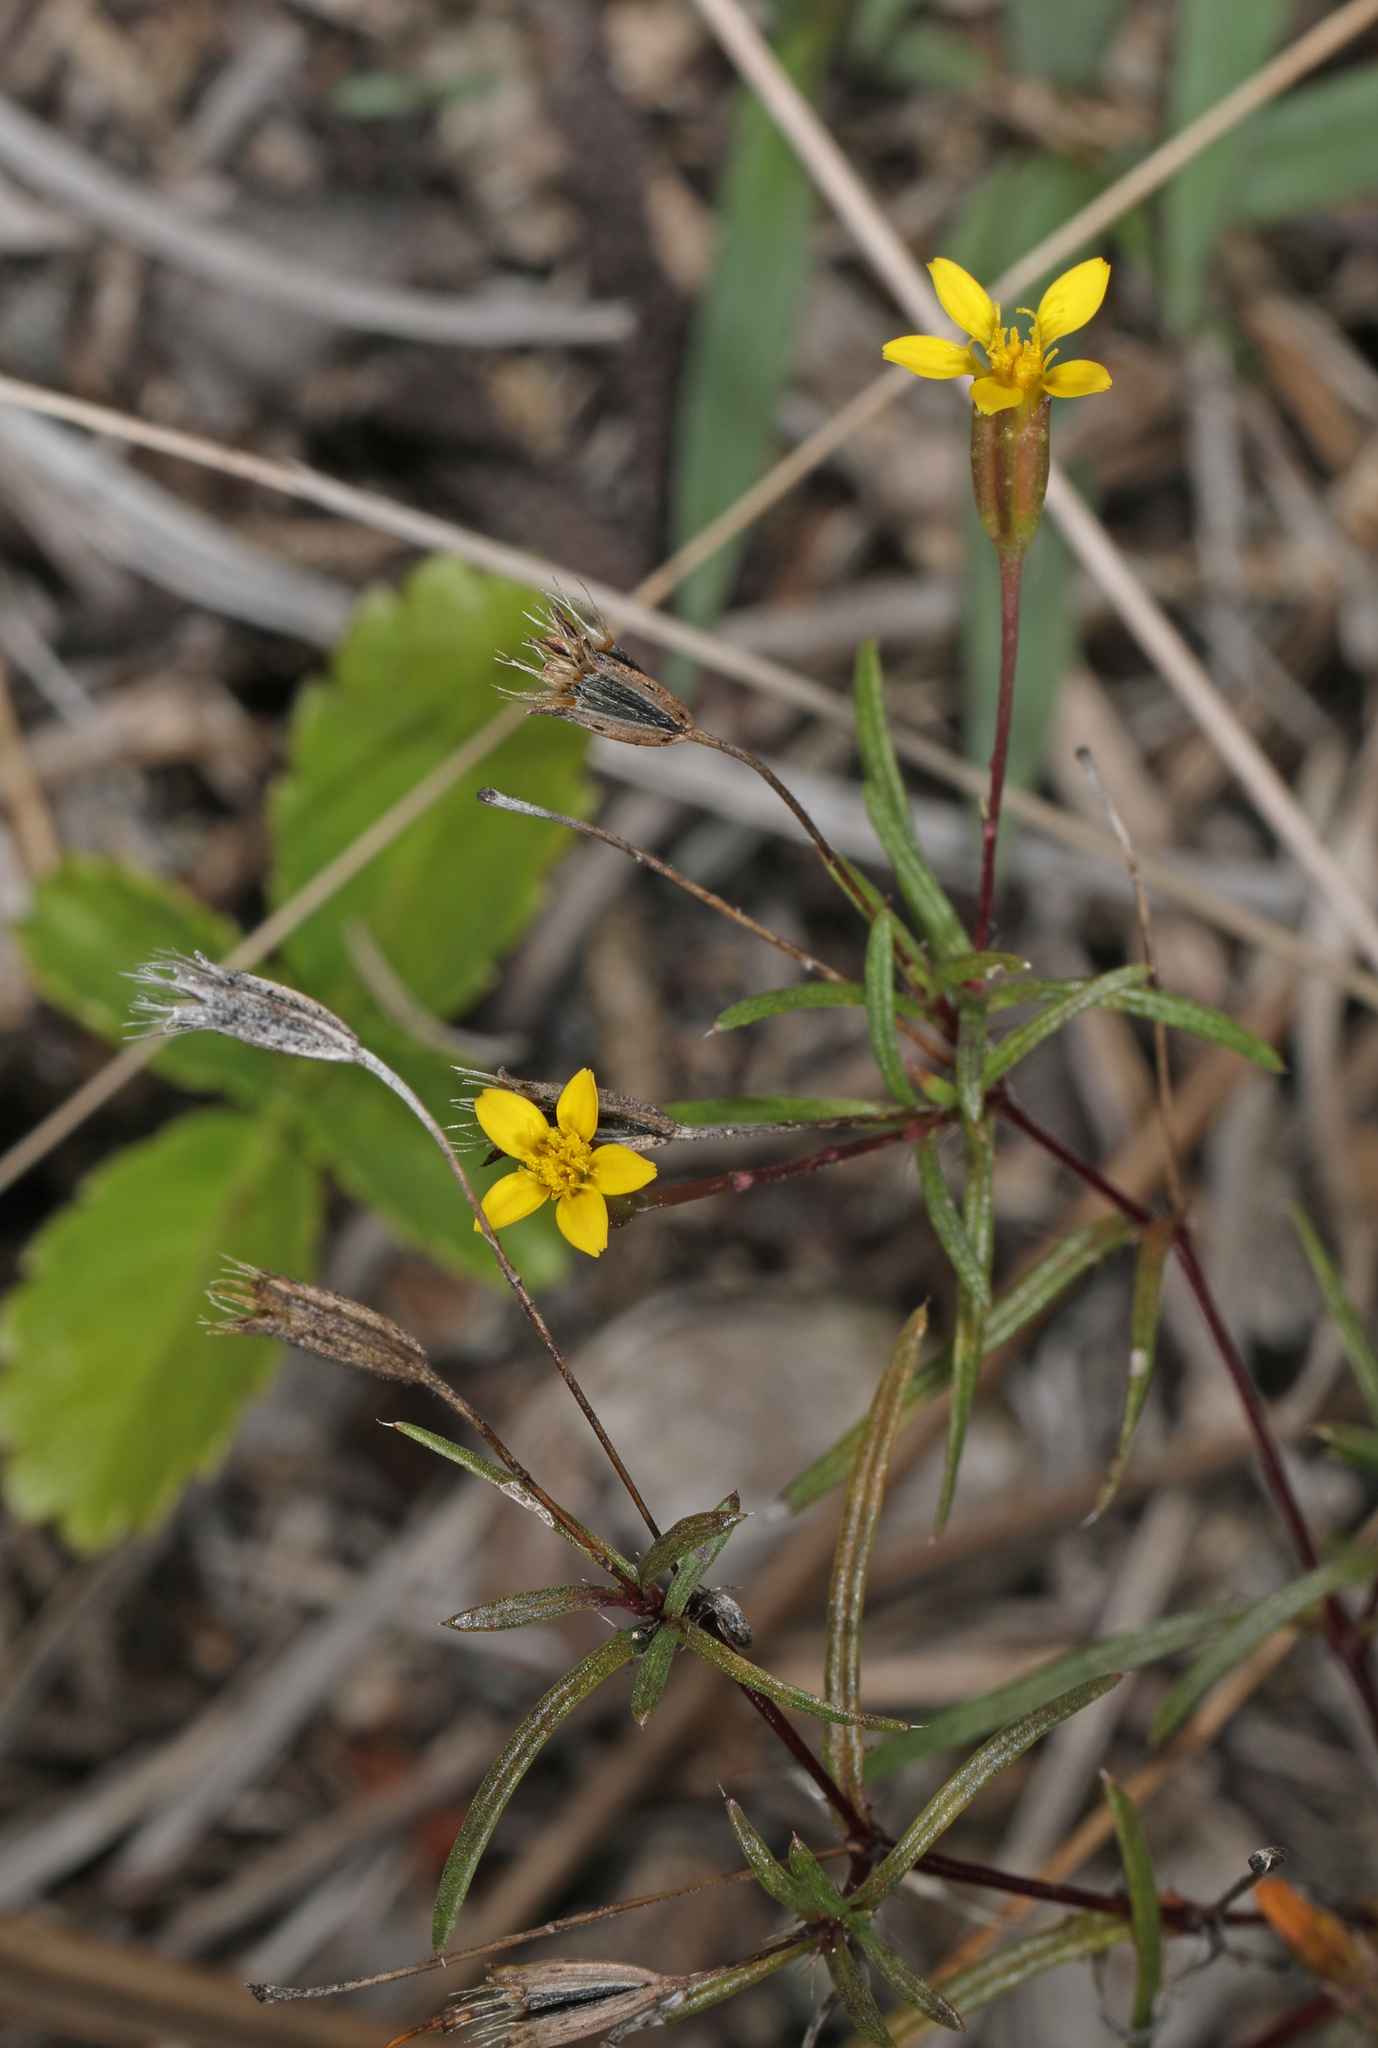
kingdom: Plantae
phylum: Tracheophyta
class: Magnoliopsida
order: Asterales
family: Asteraceae
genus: Pectis
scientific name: Pectis glaucescens
